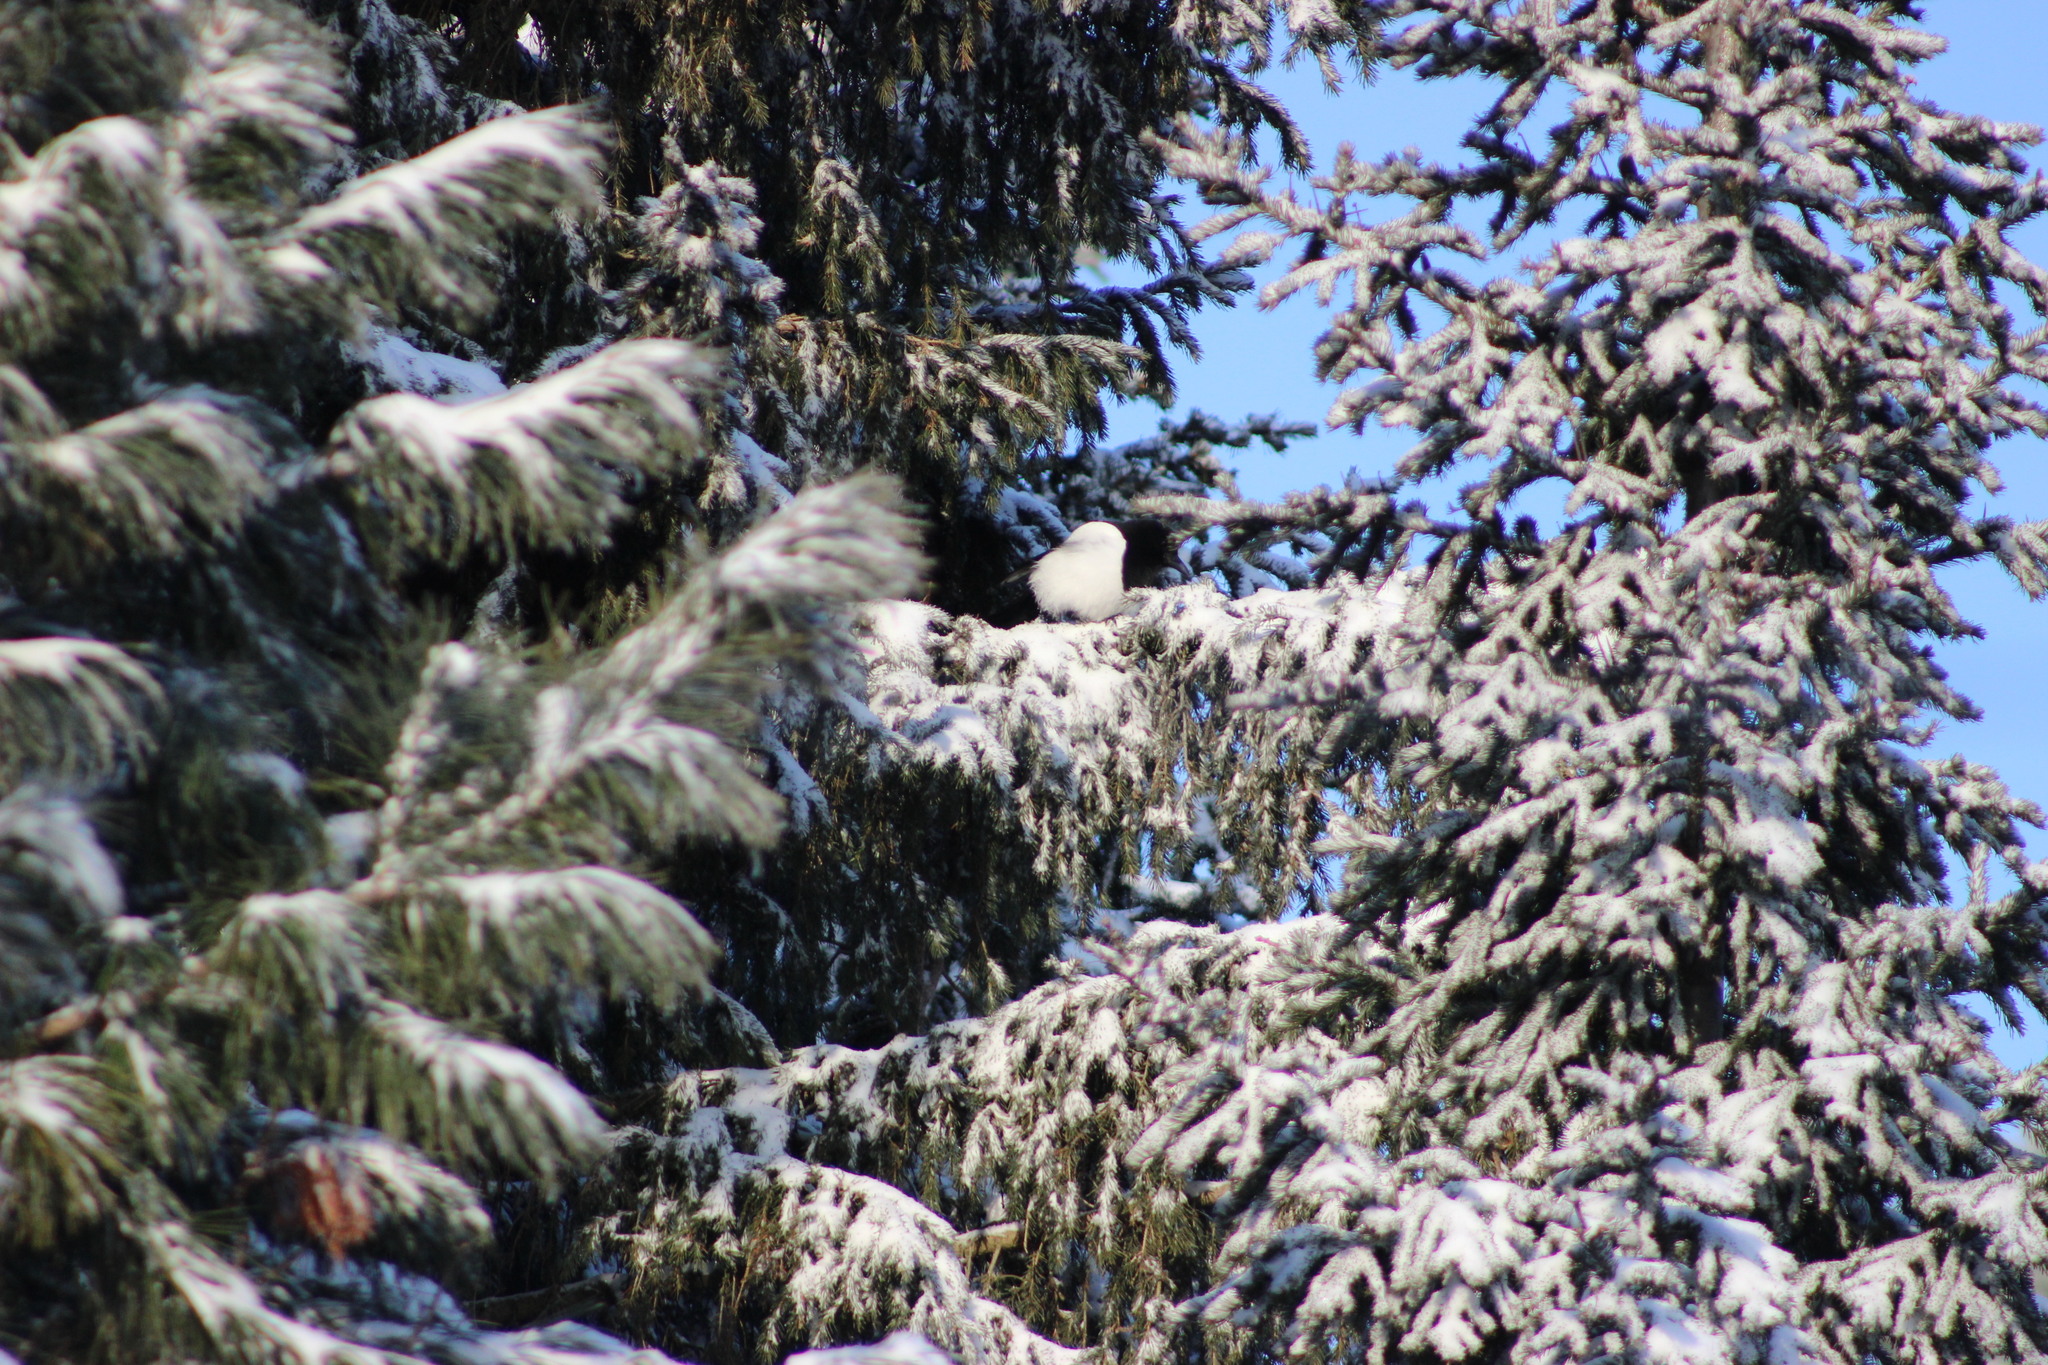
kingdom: Animalia
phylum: Chordata
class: Aves
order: Passeriformes
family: Corvidae
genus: Pica
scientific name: Pica pica
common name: Eurasian magpie
